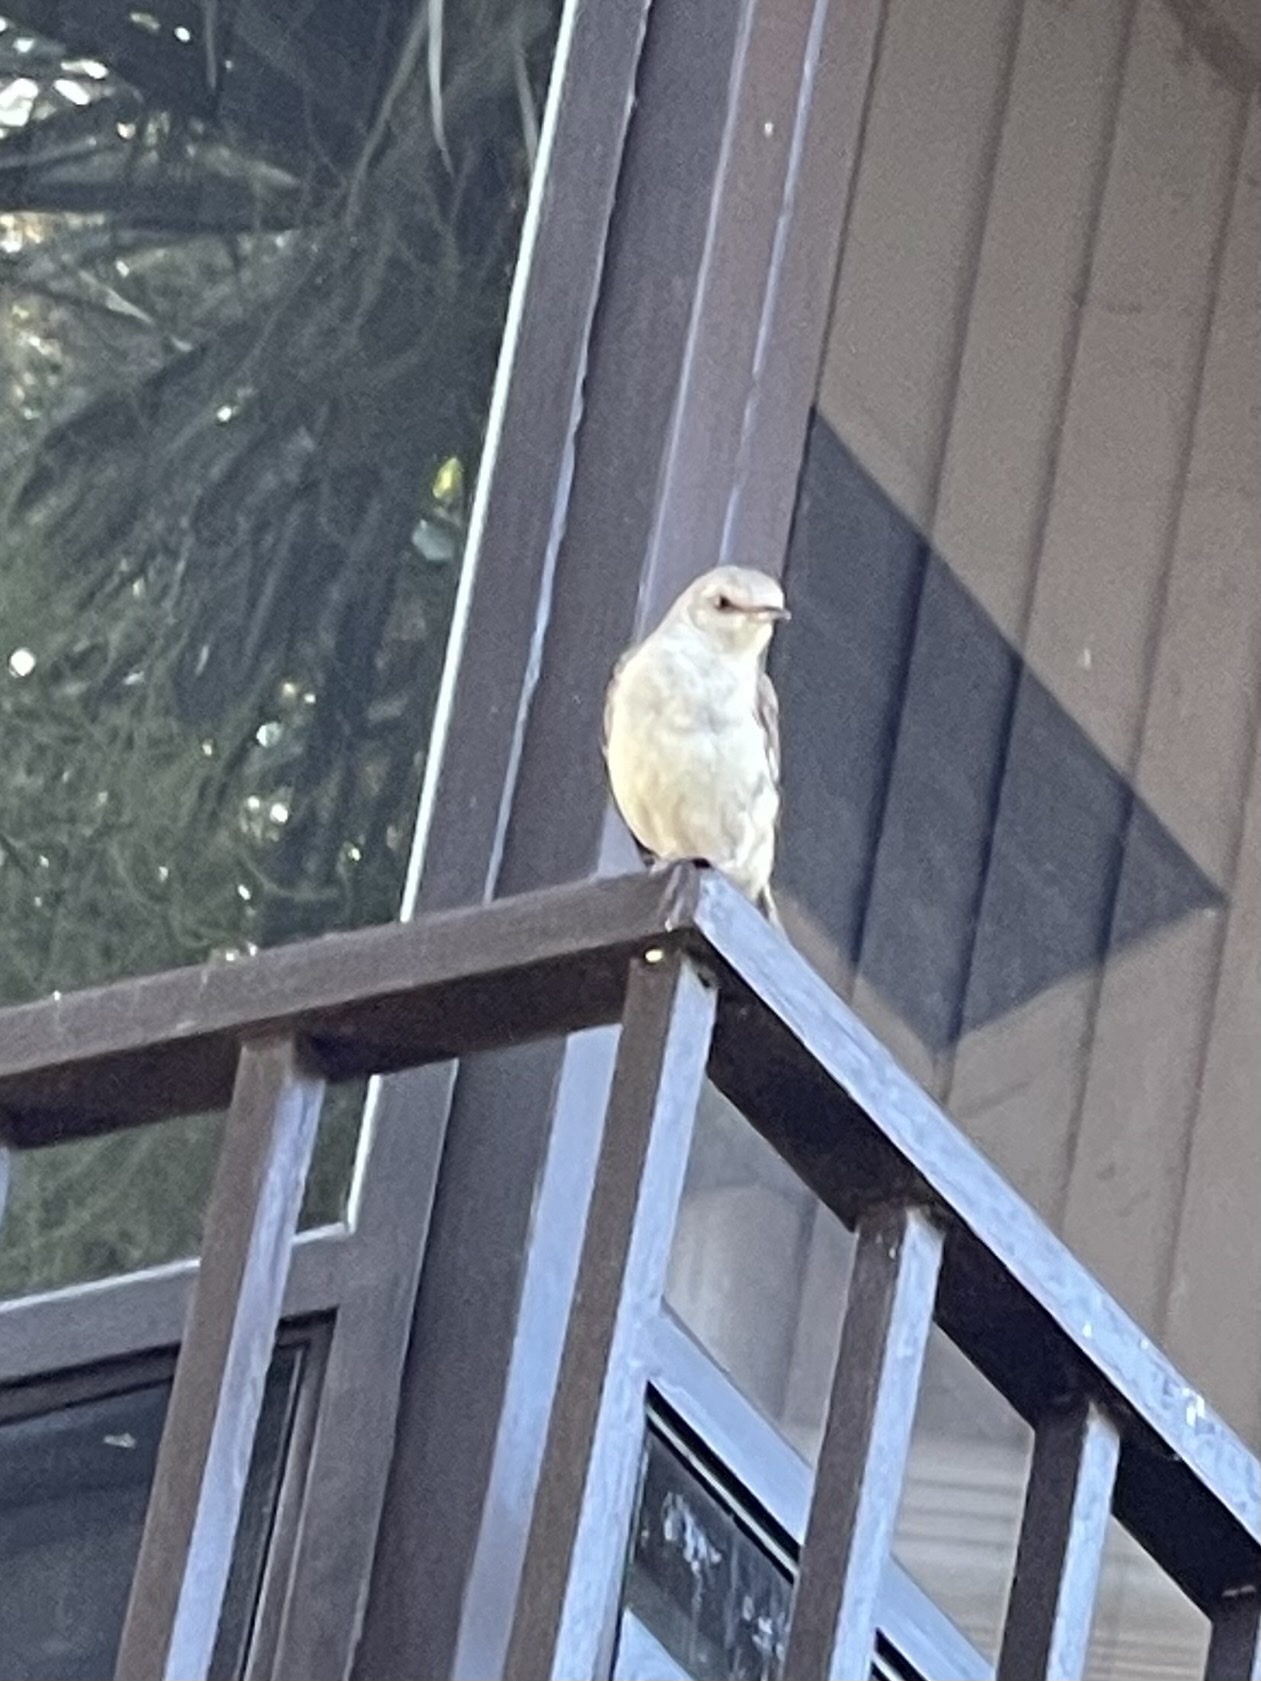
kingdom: Animalia
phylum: Chordata
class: Aves
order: Passeriformes
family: Mimidae
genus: Mimus
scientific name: Mimus polyglottos
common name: Northern mockingbird
